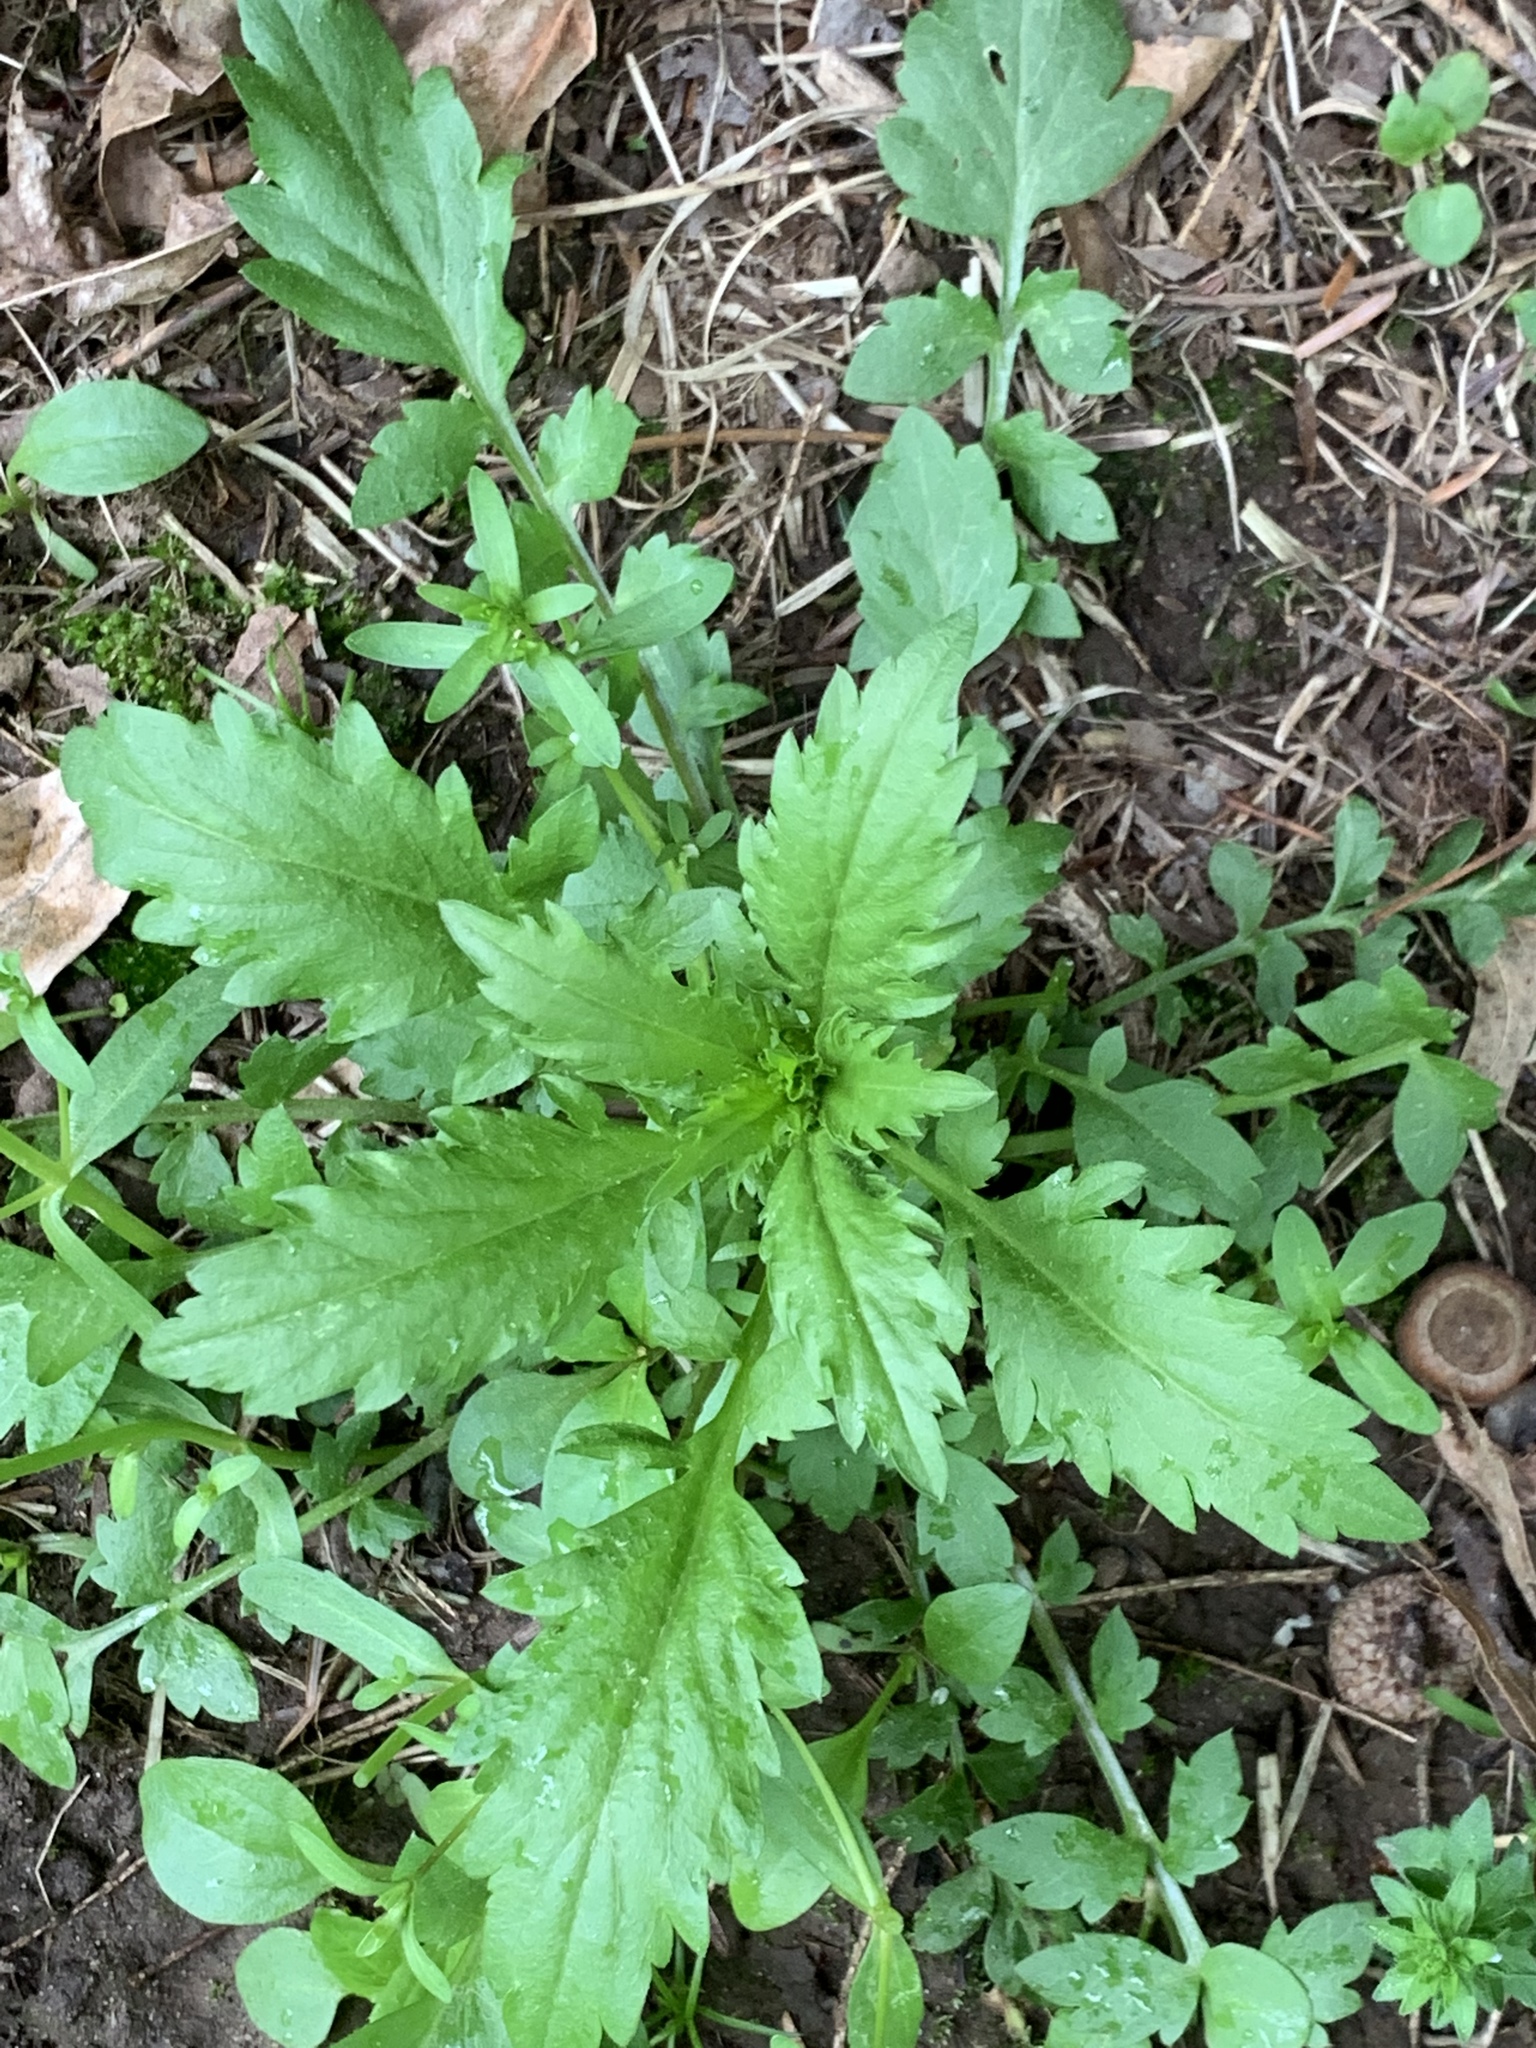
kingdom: Plantae
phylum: Tracheophyta
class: Magnoliopsida
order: Asterales
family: Asteraceae
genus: Erechtites
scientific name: Erechtites hieraciifolius
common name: American burnweed
